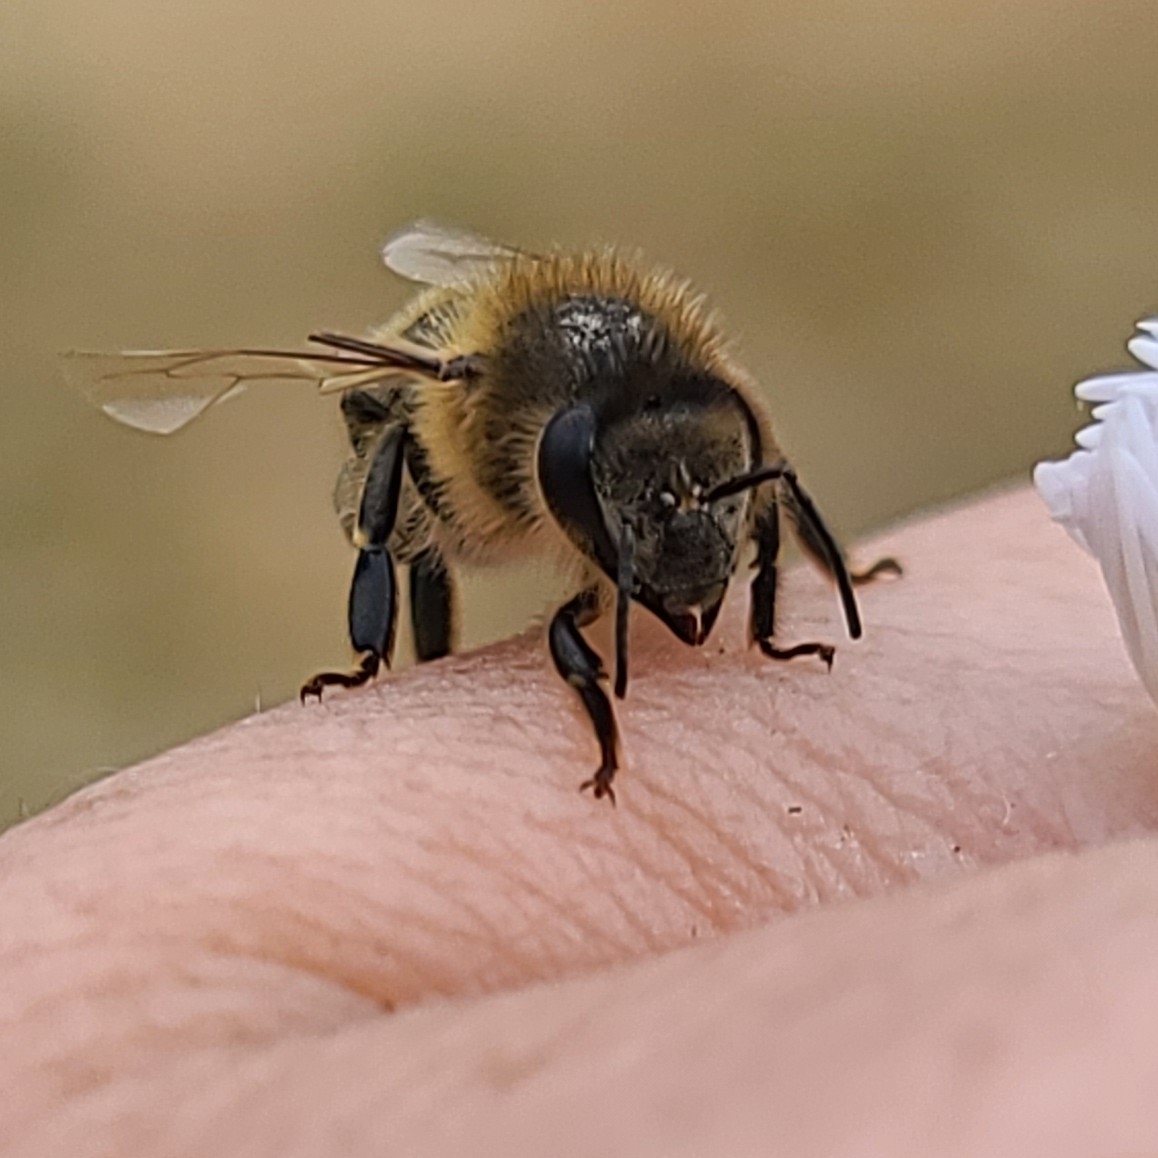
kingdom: Animalia
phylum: Arthropoda
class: Insecta
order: Hymenoptera
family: Apidae
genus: Apis
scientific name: Apis mellifera
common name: Honey bee
